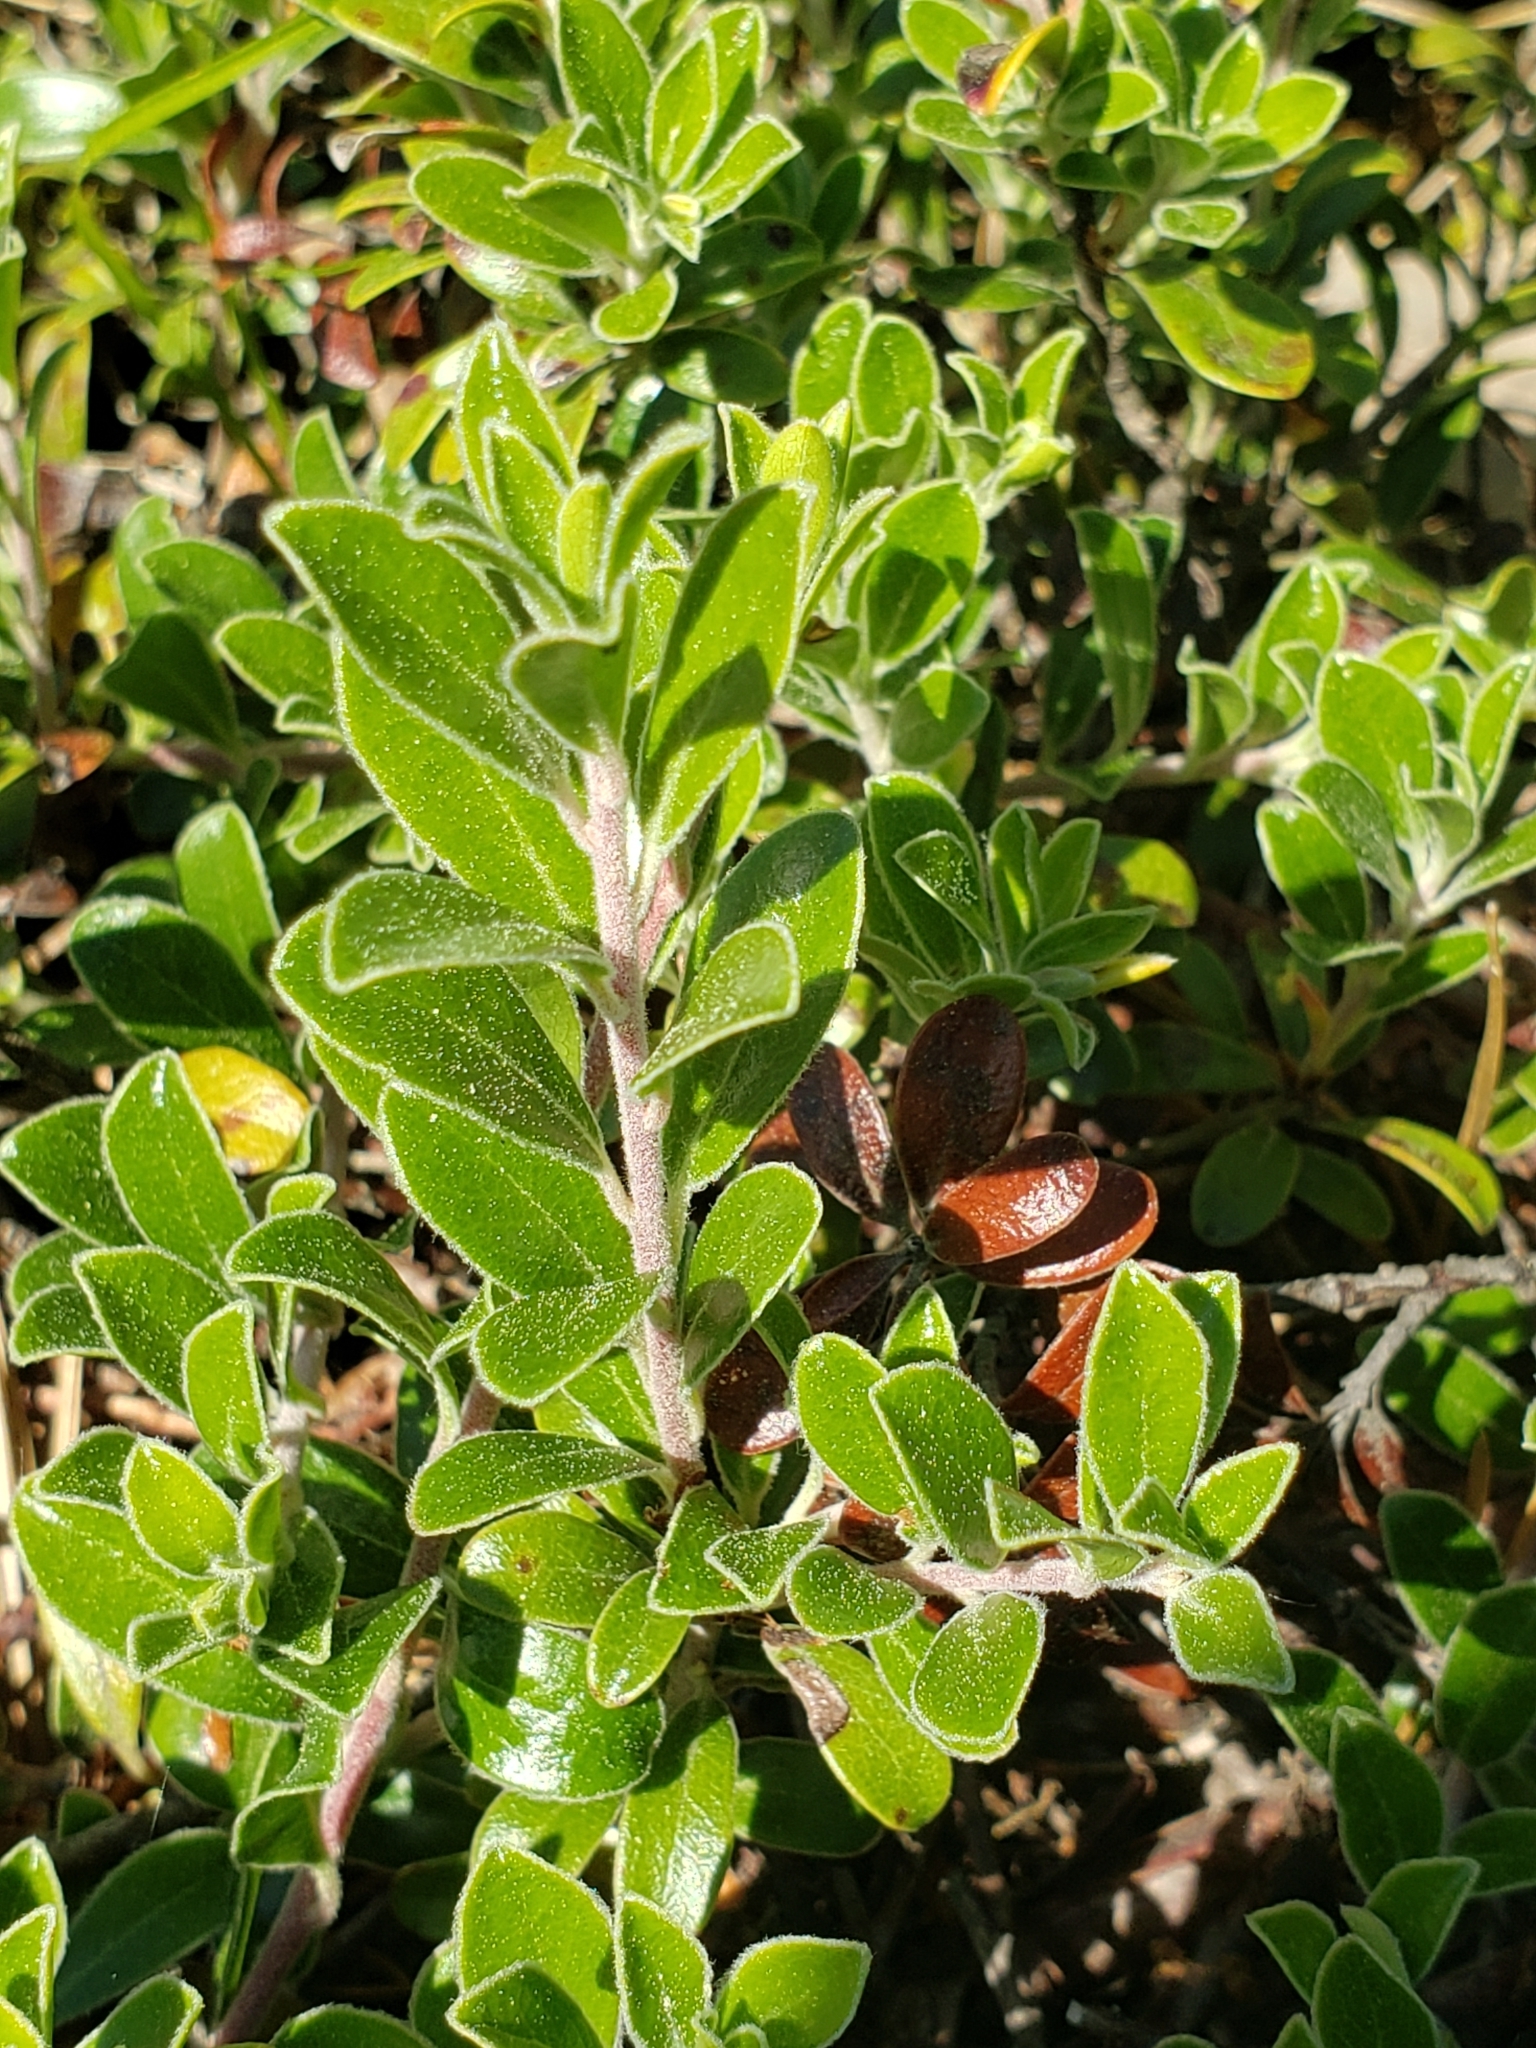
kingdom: Plantae
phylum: Tracheophyta
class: Magnoliopsida
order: Ericales
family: Ericaceae
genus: Arctostaphylos
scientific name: Arctostaphylos uva-ursi
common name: Bearberry
